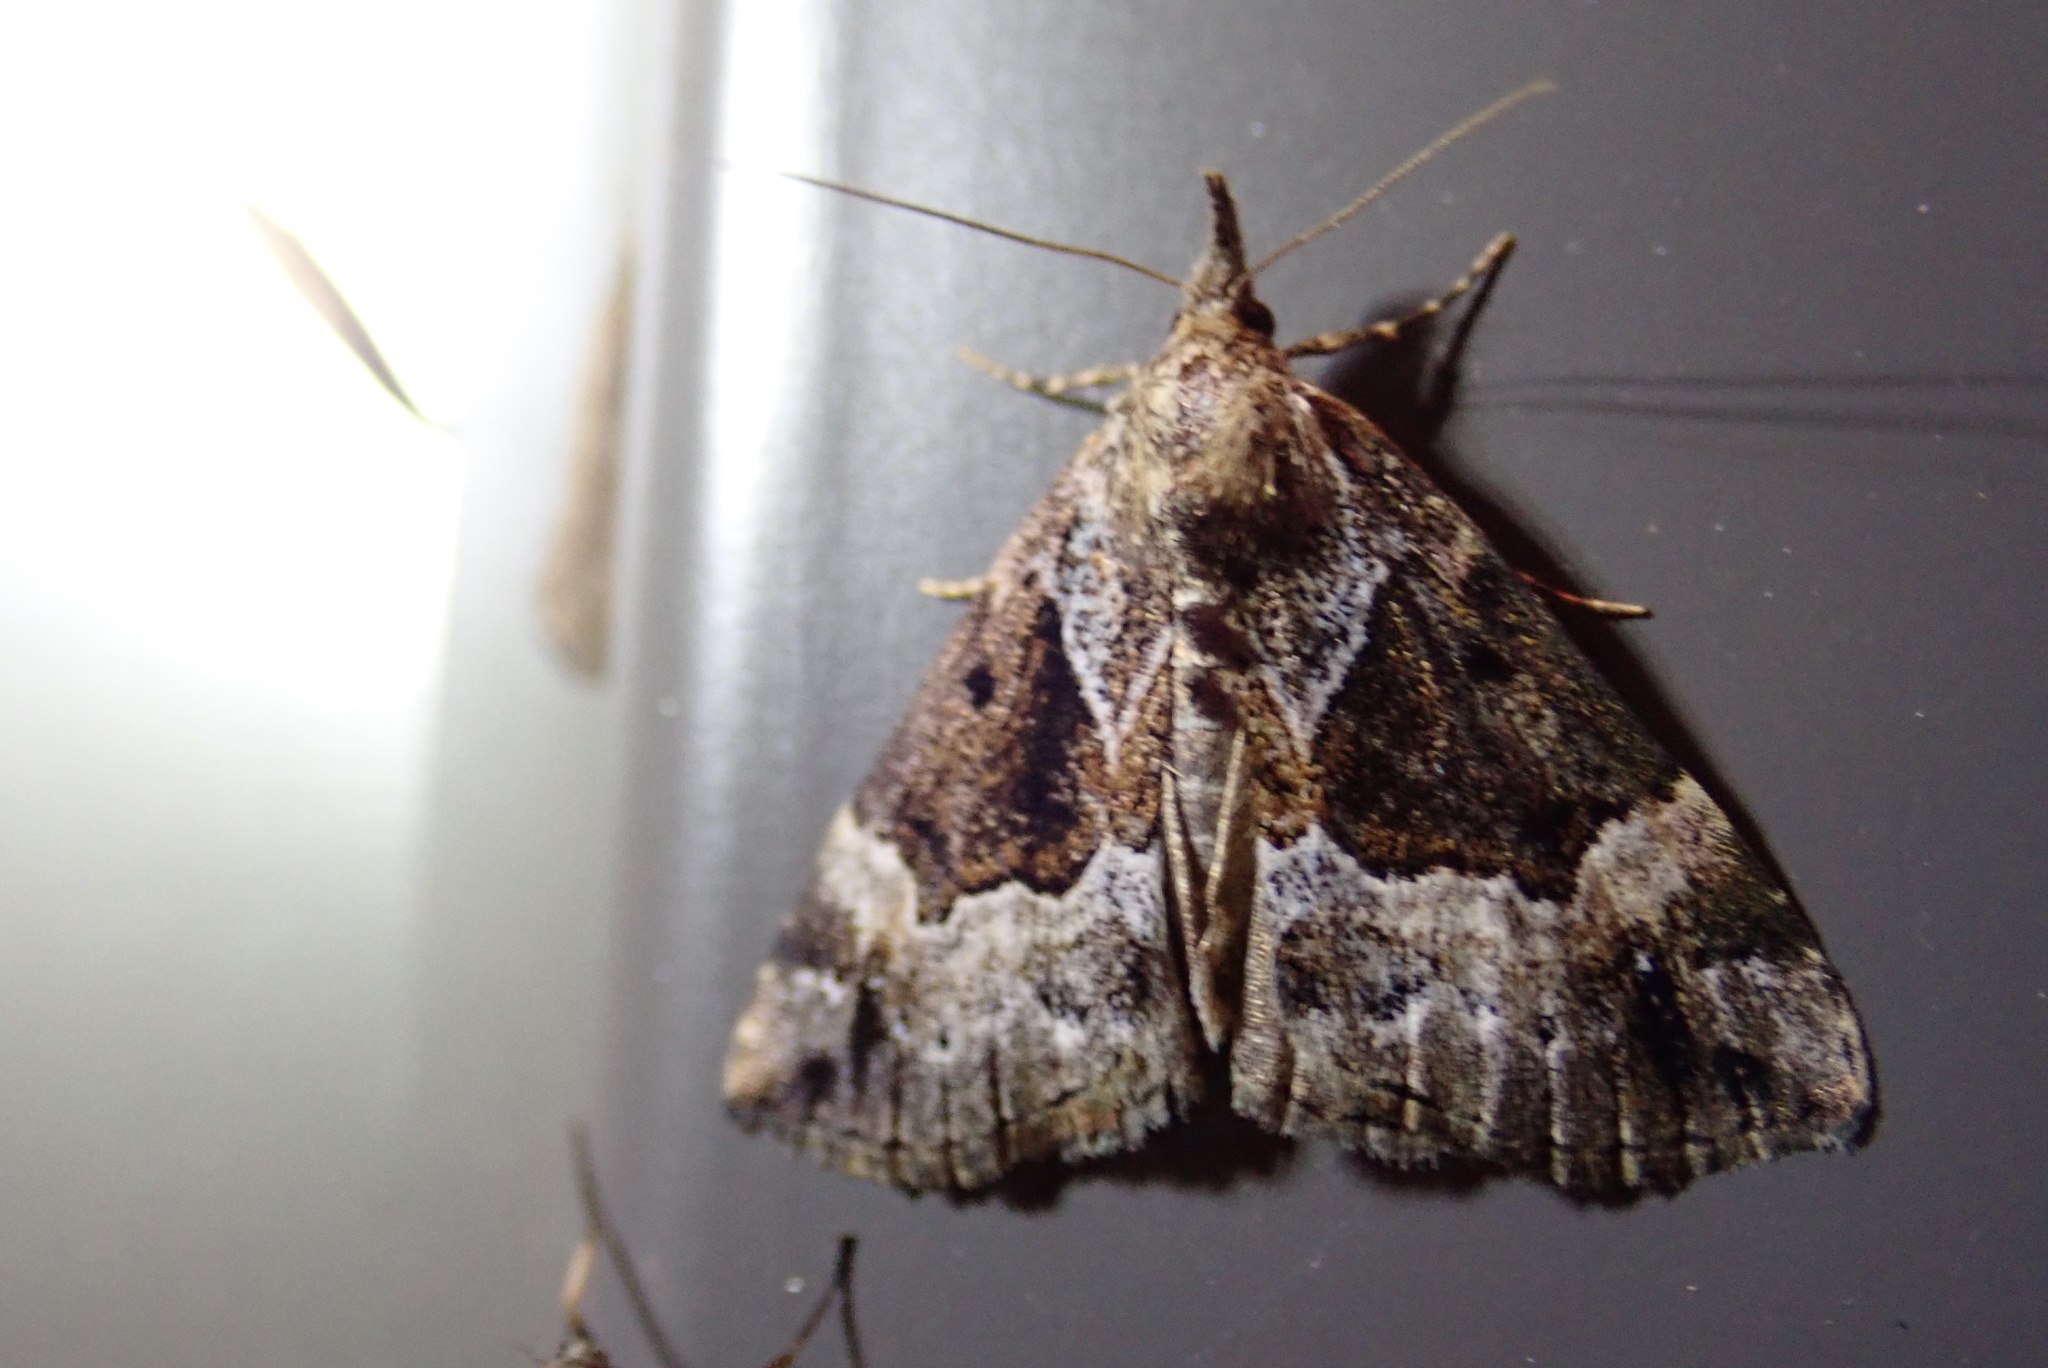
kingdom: Animalia
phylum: Arthropoda
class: Insecta
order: Lepidoptera
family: Erebidae
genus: Hypena
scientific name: Hypena palparia
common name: Mottled bomolocha moth
